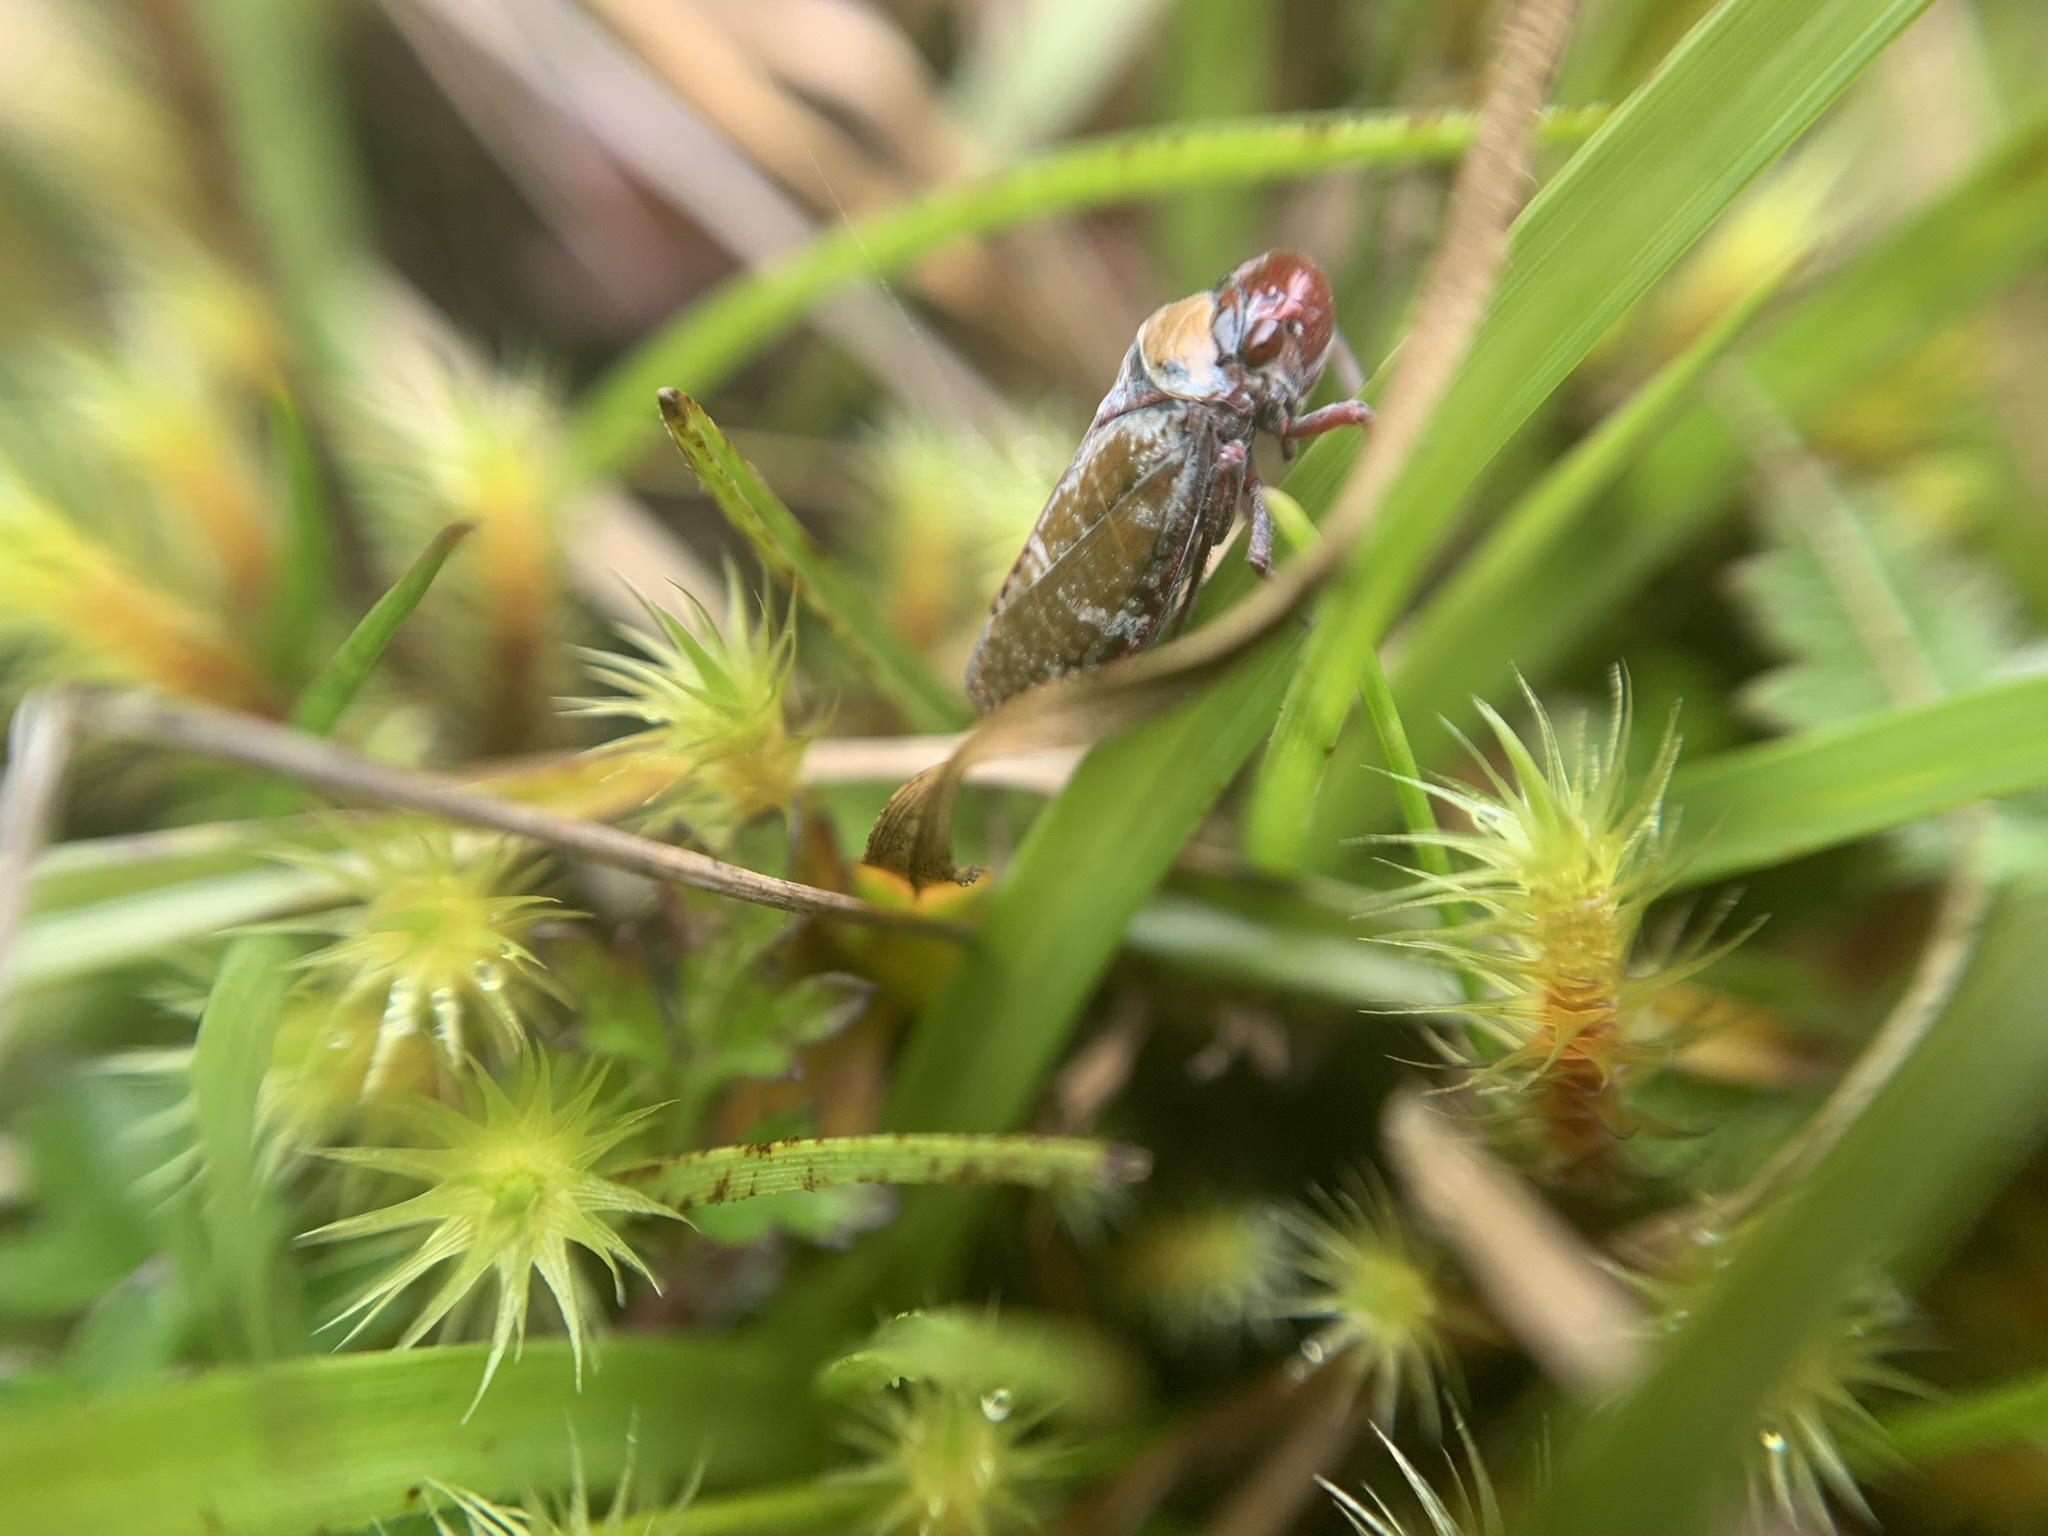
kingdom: Animalia
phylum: Arthropoda
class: Insecta
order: Hemiptera
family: Cicadellidae
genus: Paracatua
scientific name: Paracatua rubrolimbata
